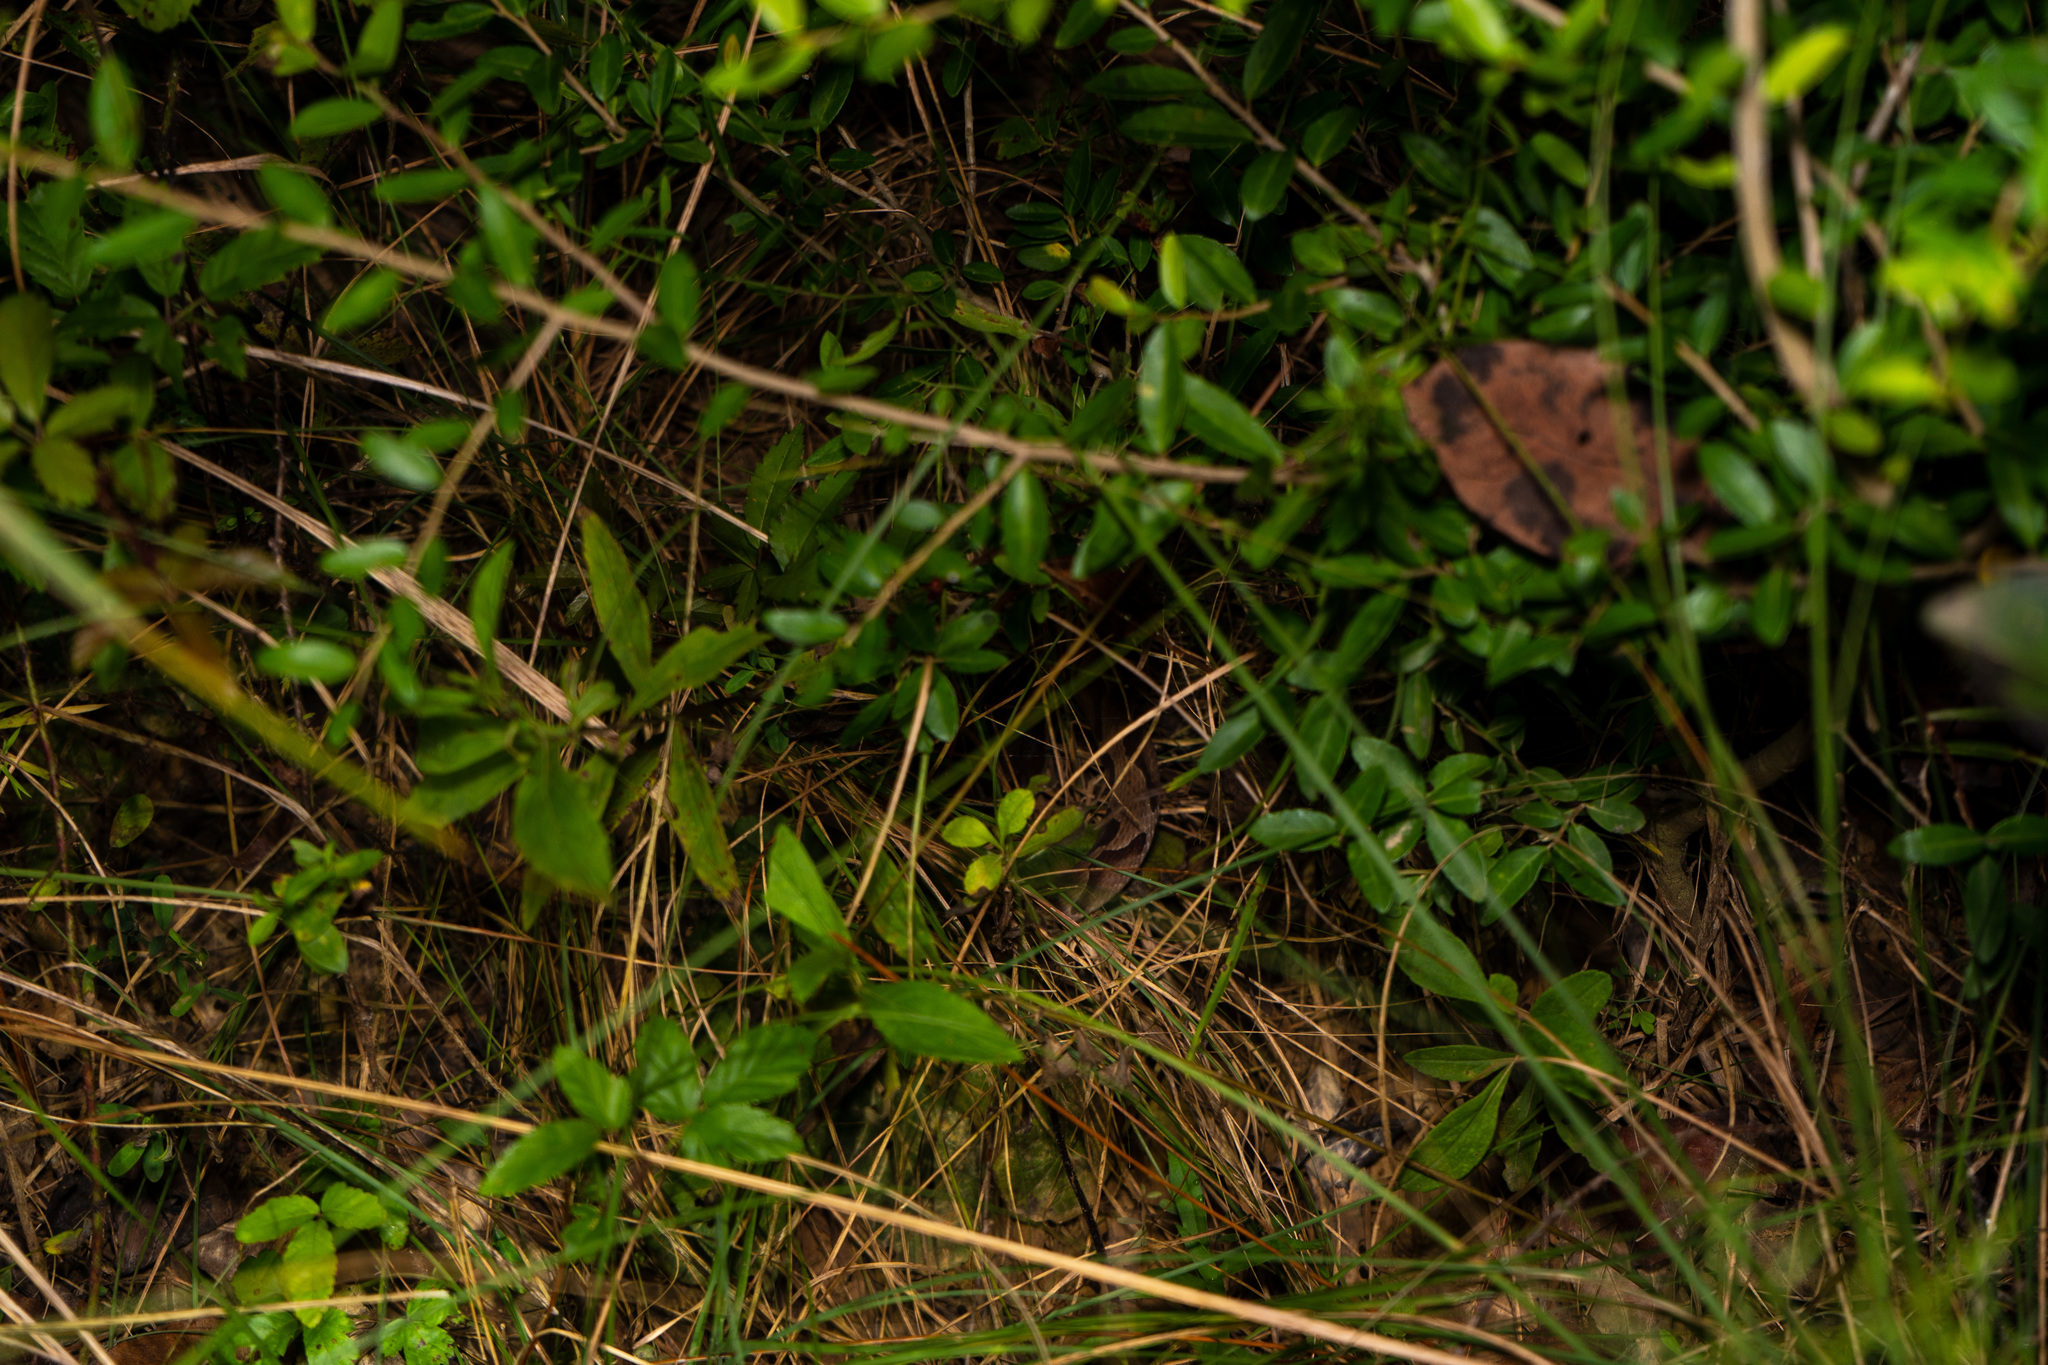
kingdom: Animalia
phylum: Chordata
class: Squamata
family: Viperidae
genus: Agkistrodon
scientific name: Agkistrodon contortrix
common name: Northern copperhead
